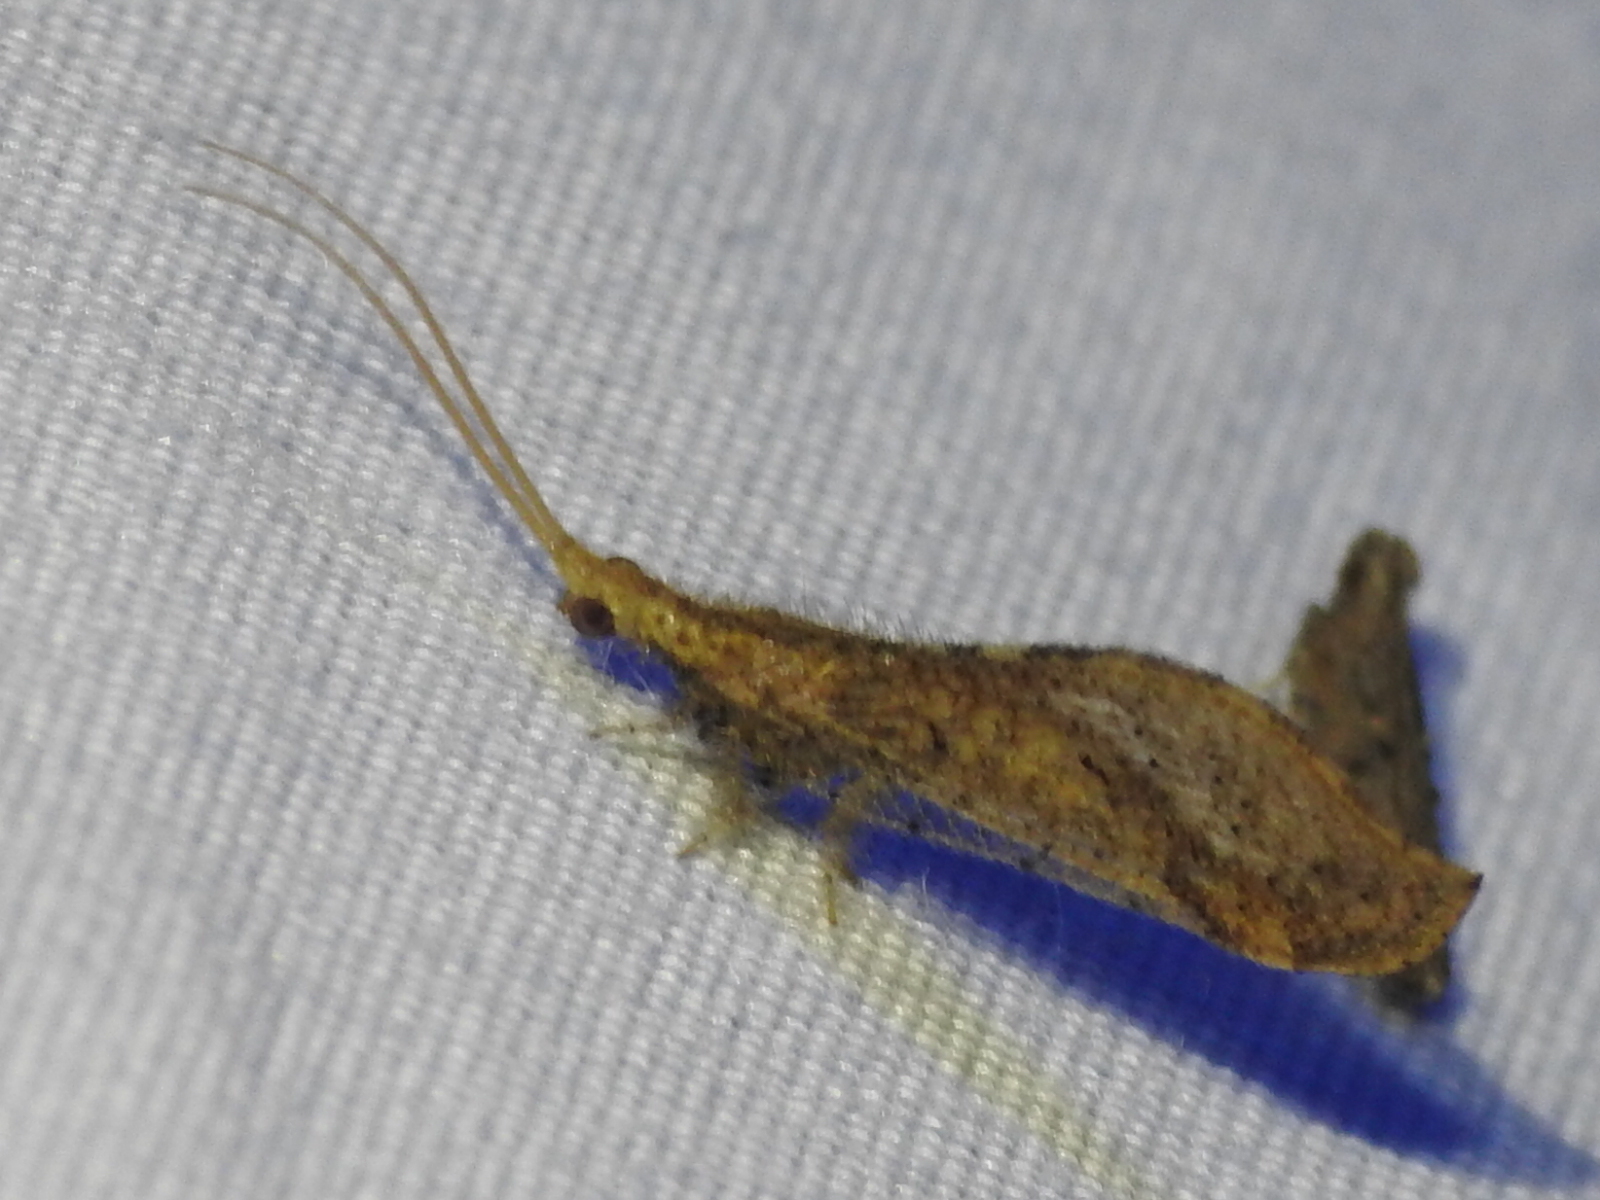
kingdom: Animalia
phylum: Arthropoda
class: Insecta
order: Neuroptera
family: Berothidae
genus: Lomamyia
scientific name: Lomamyia squamosa
